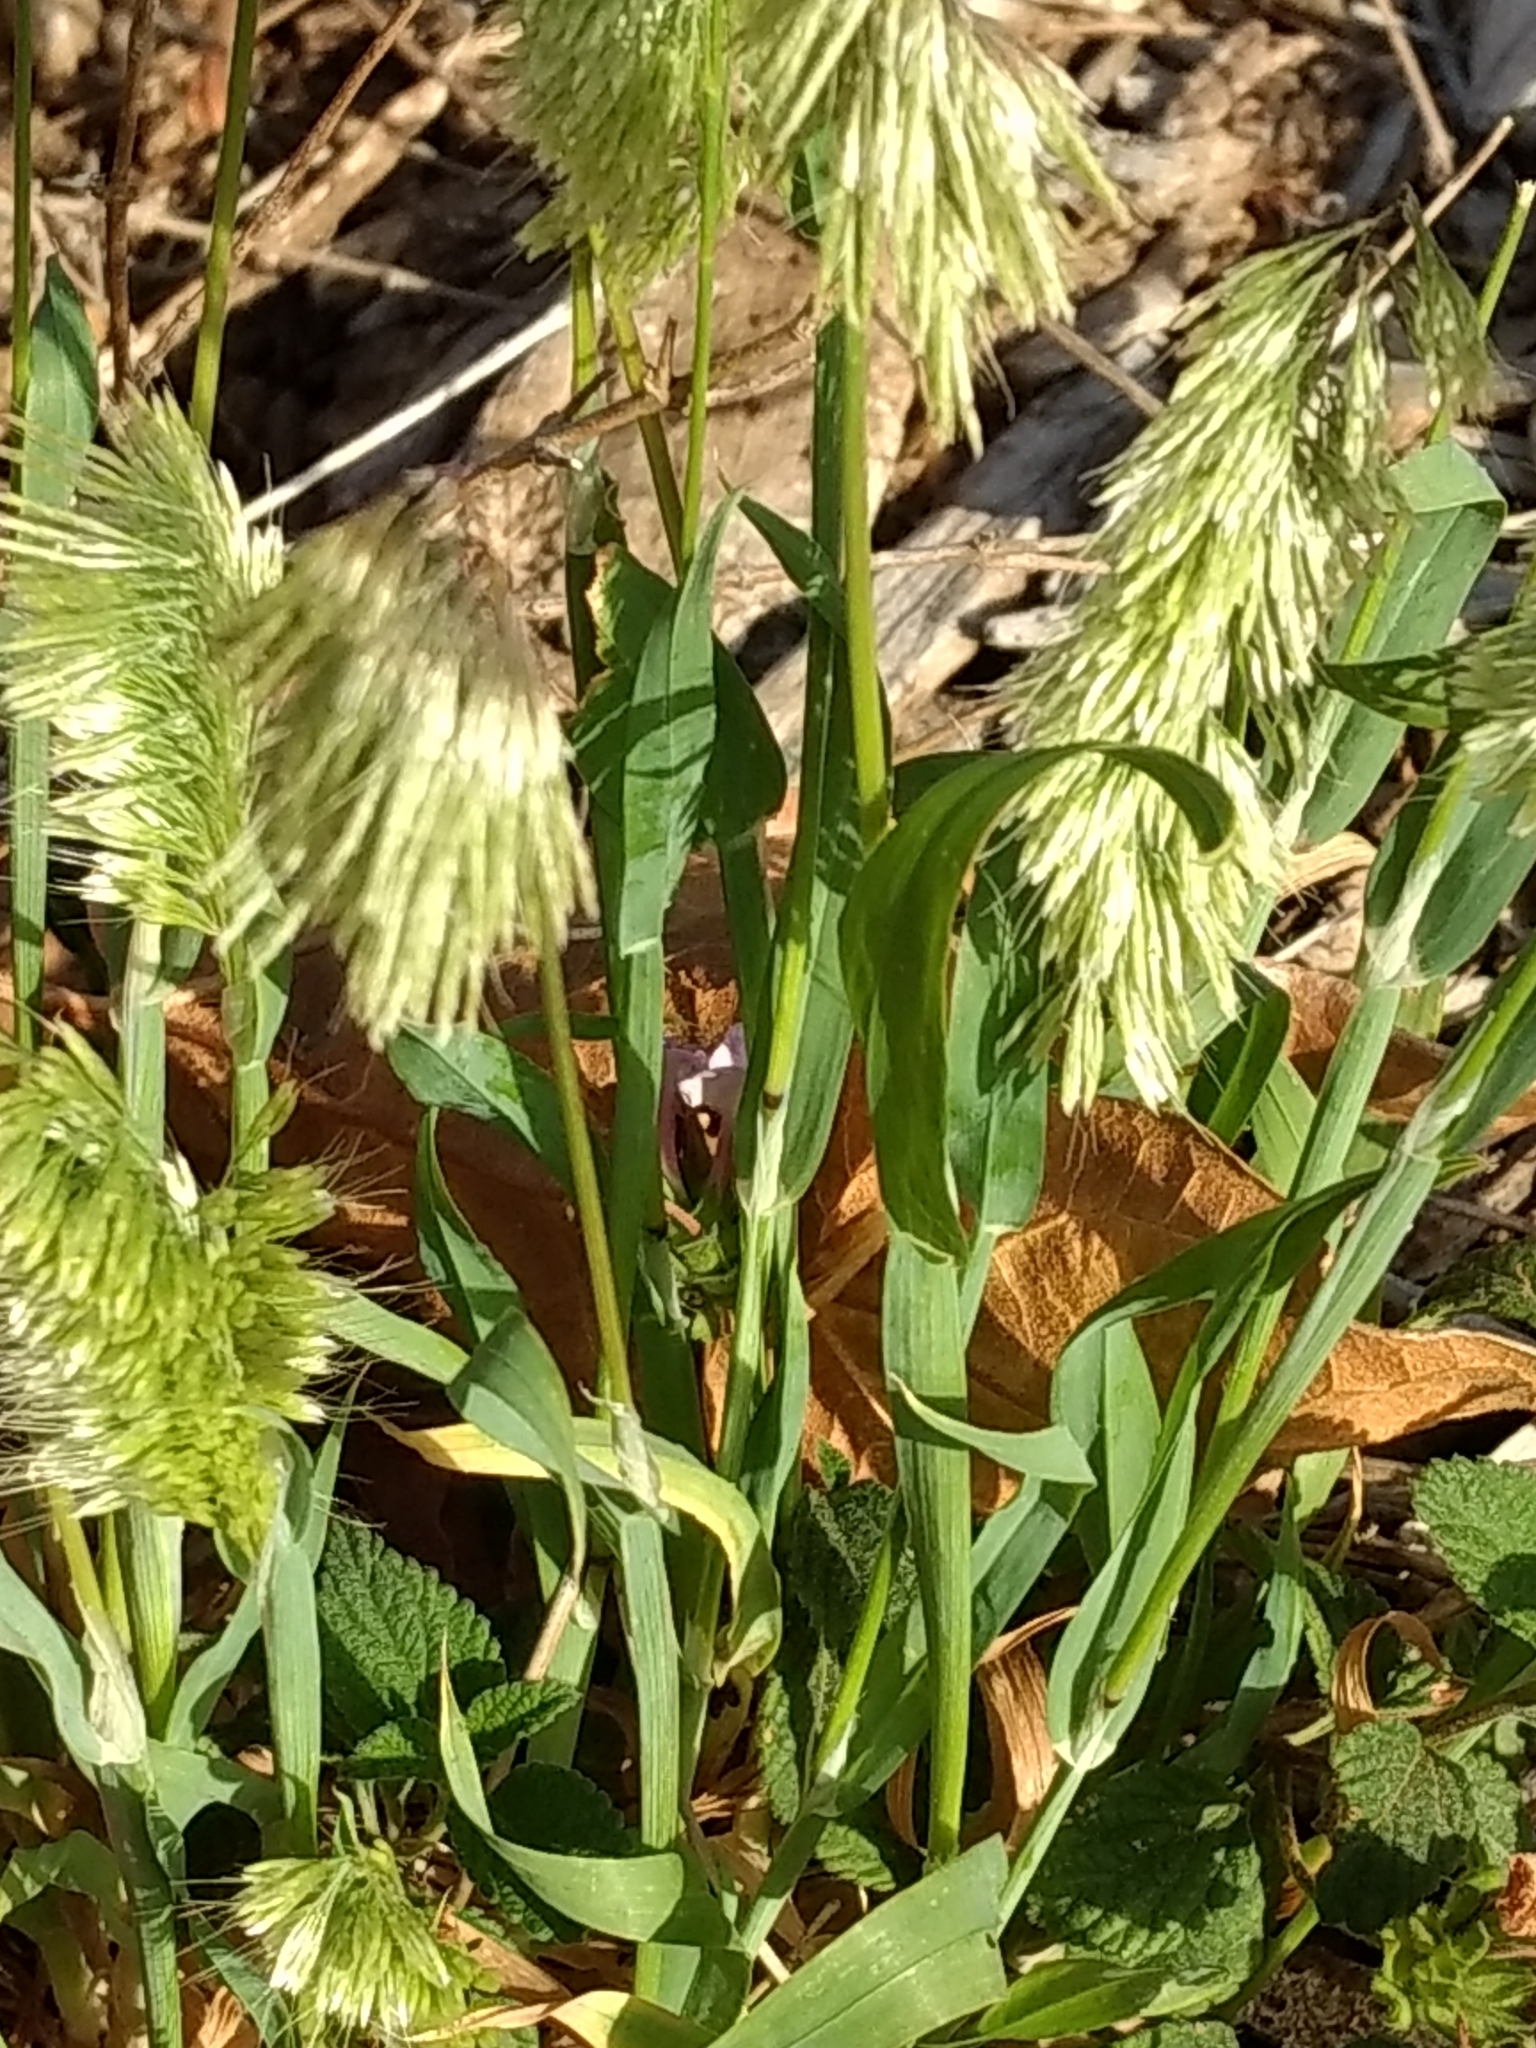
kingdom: Plantae
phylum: Tracheophyta
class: Liliopsida
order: Poales
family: Poaceae
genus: Lamarckia
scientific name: Lamarckia aurea
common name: Golden dog's-tail
